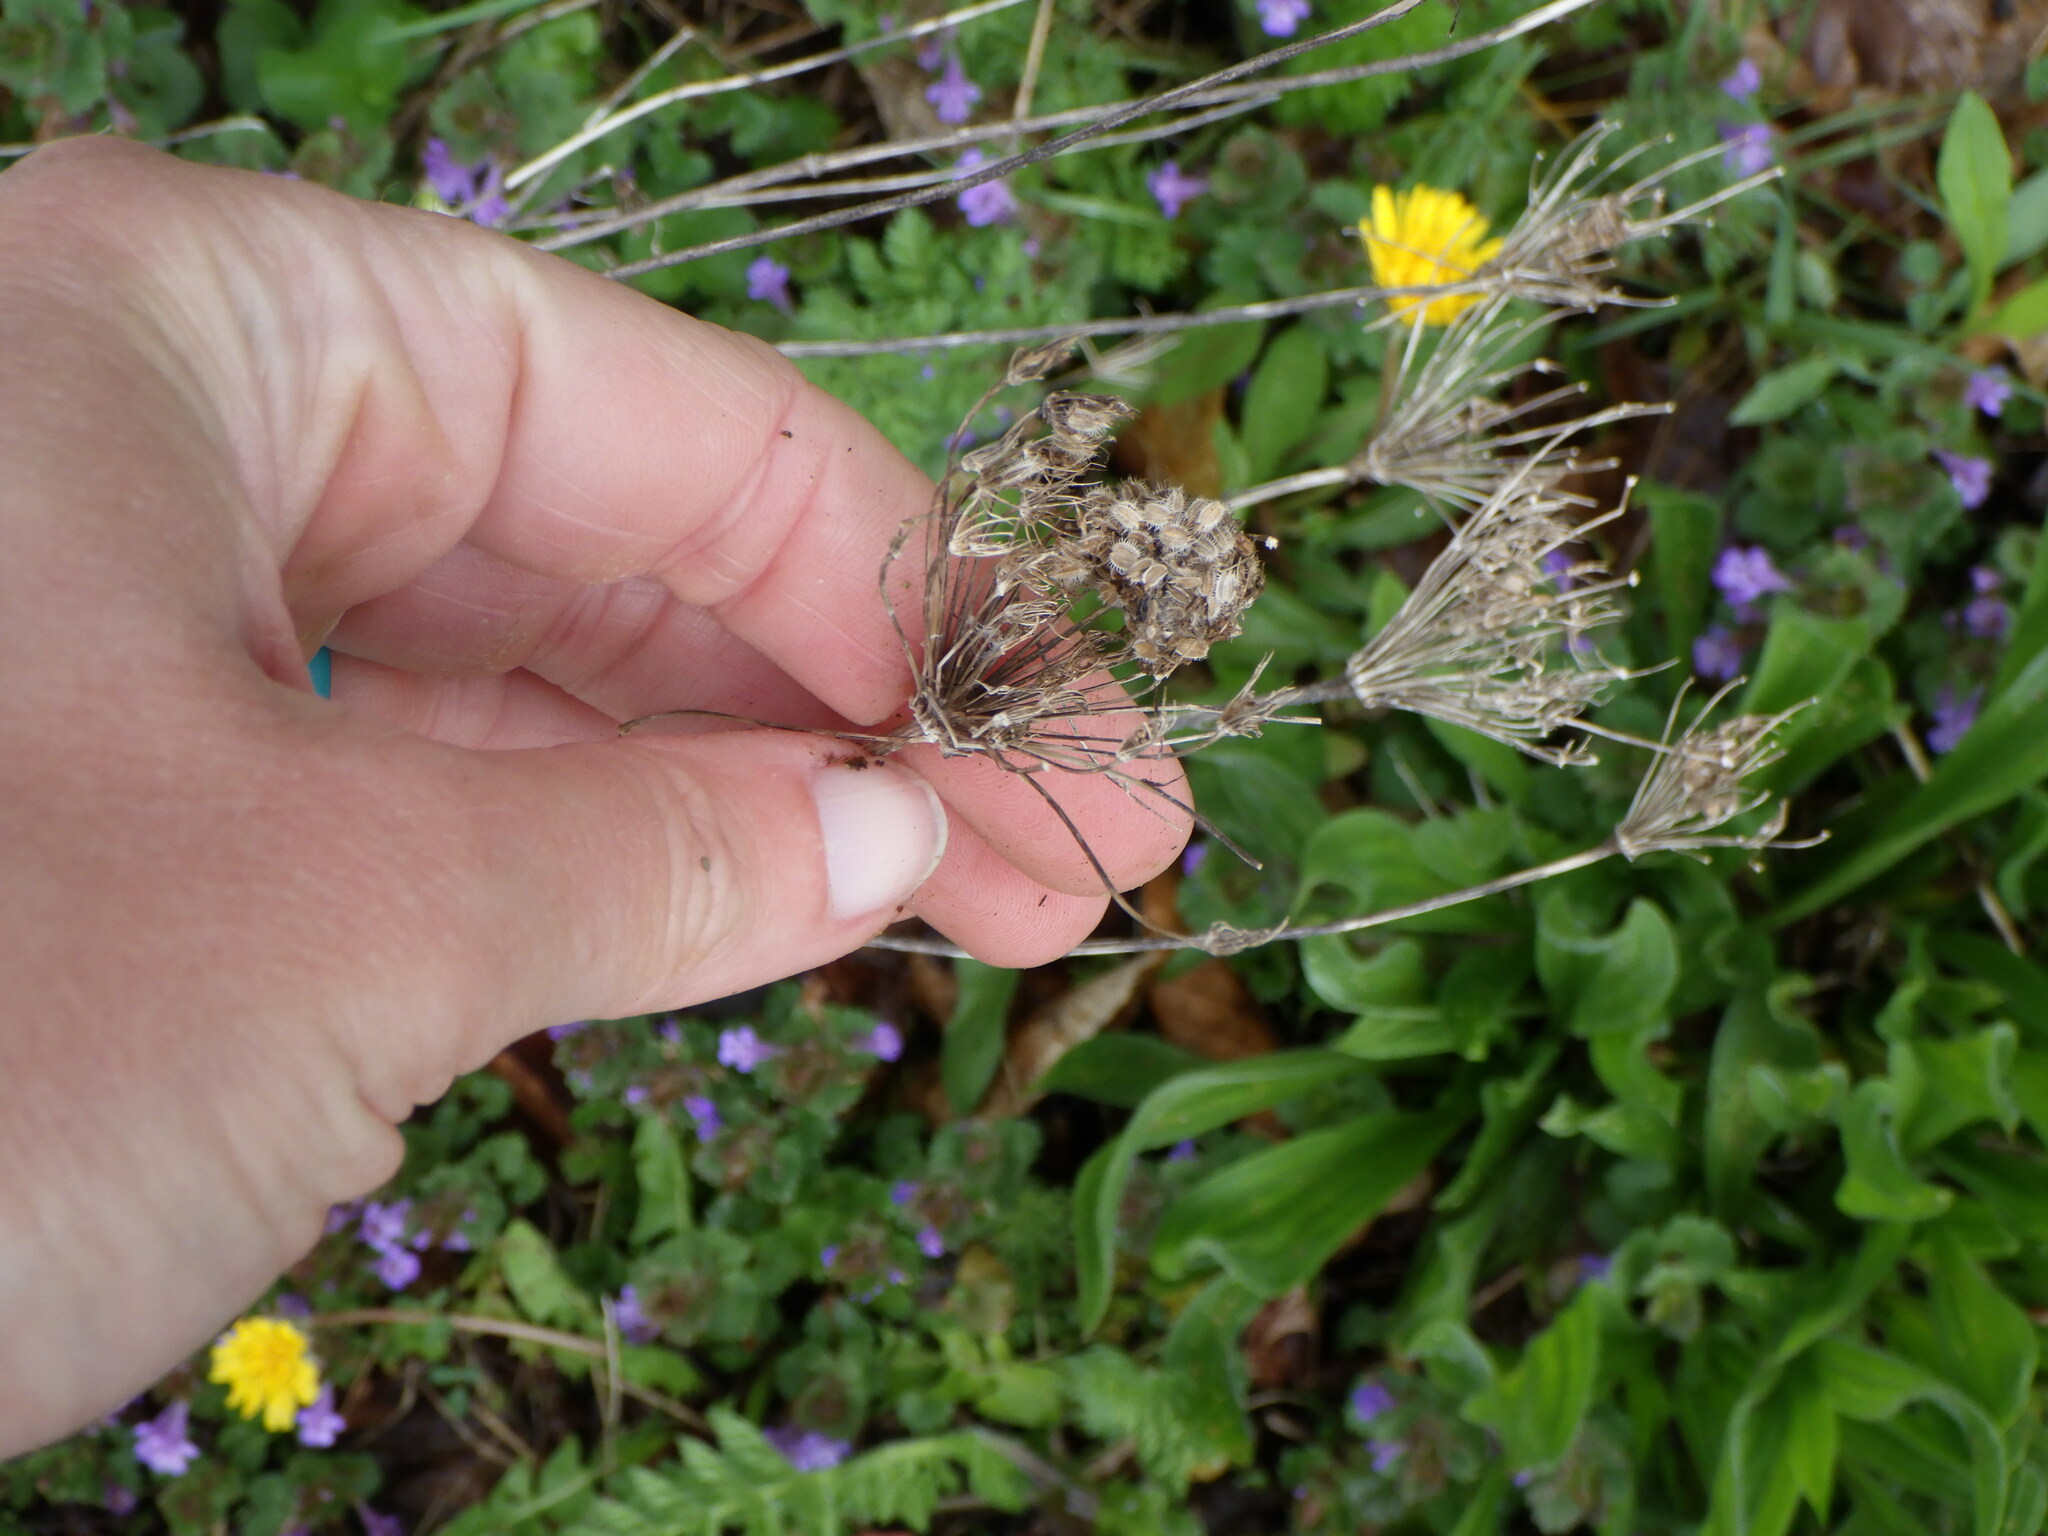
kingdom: Plantae
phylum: Tracheophyta
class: Magnoliopsida
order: Apiales
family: Apiaceae
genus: Daucus
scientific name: Daucus carota
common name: Wild carrot
